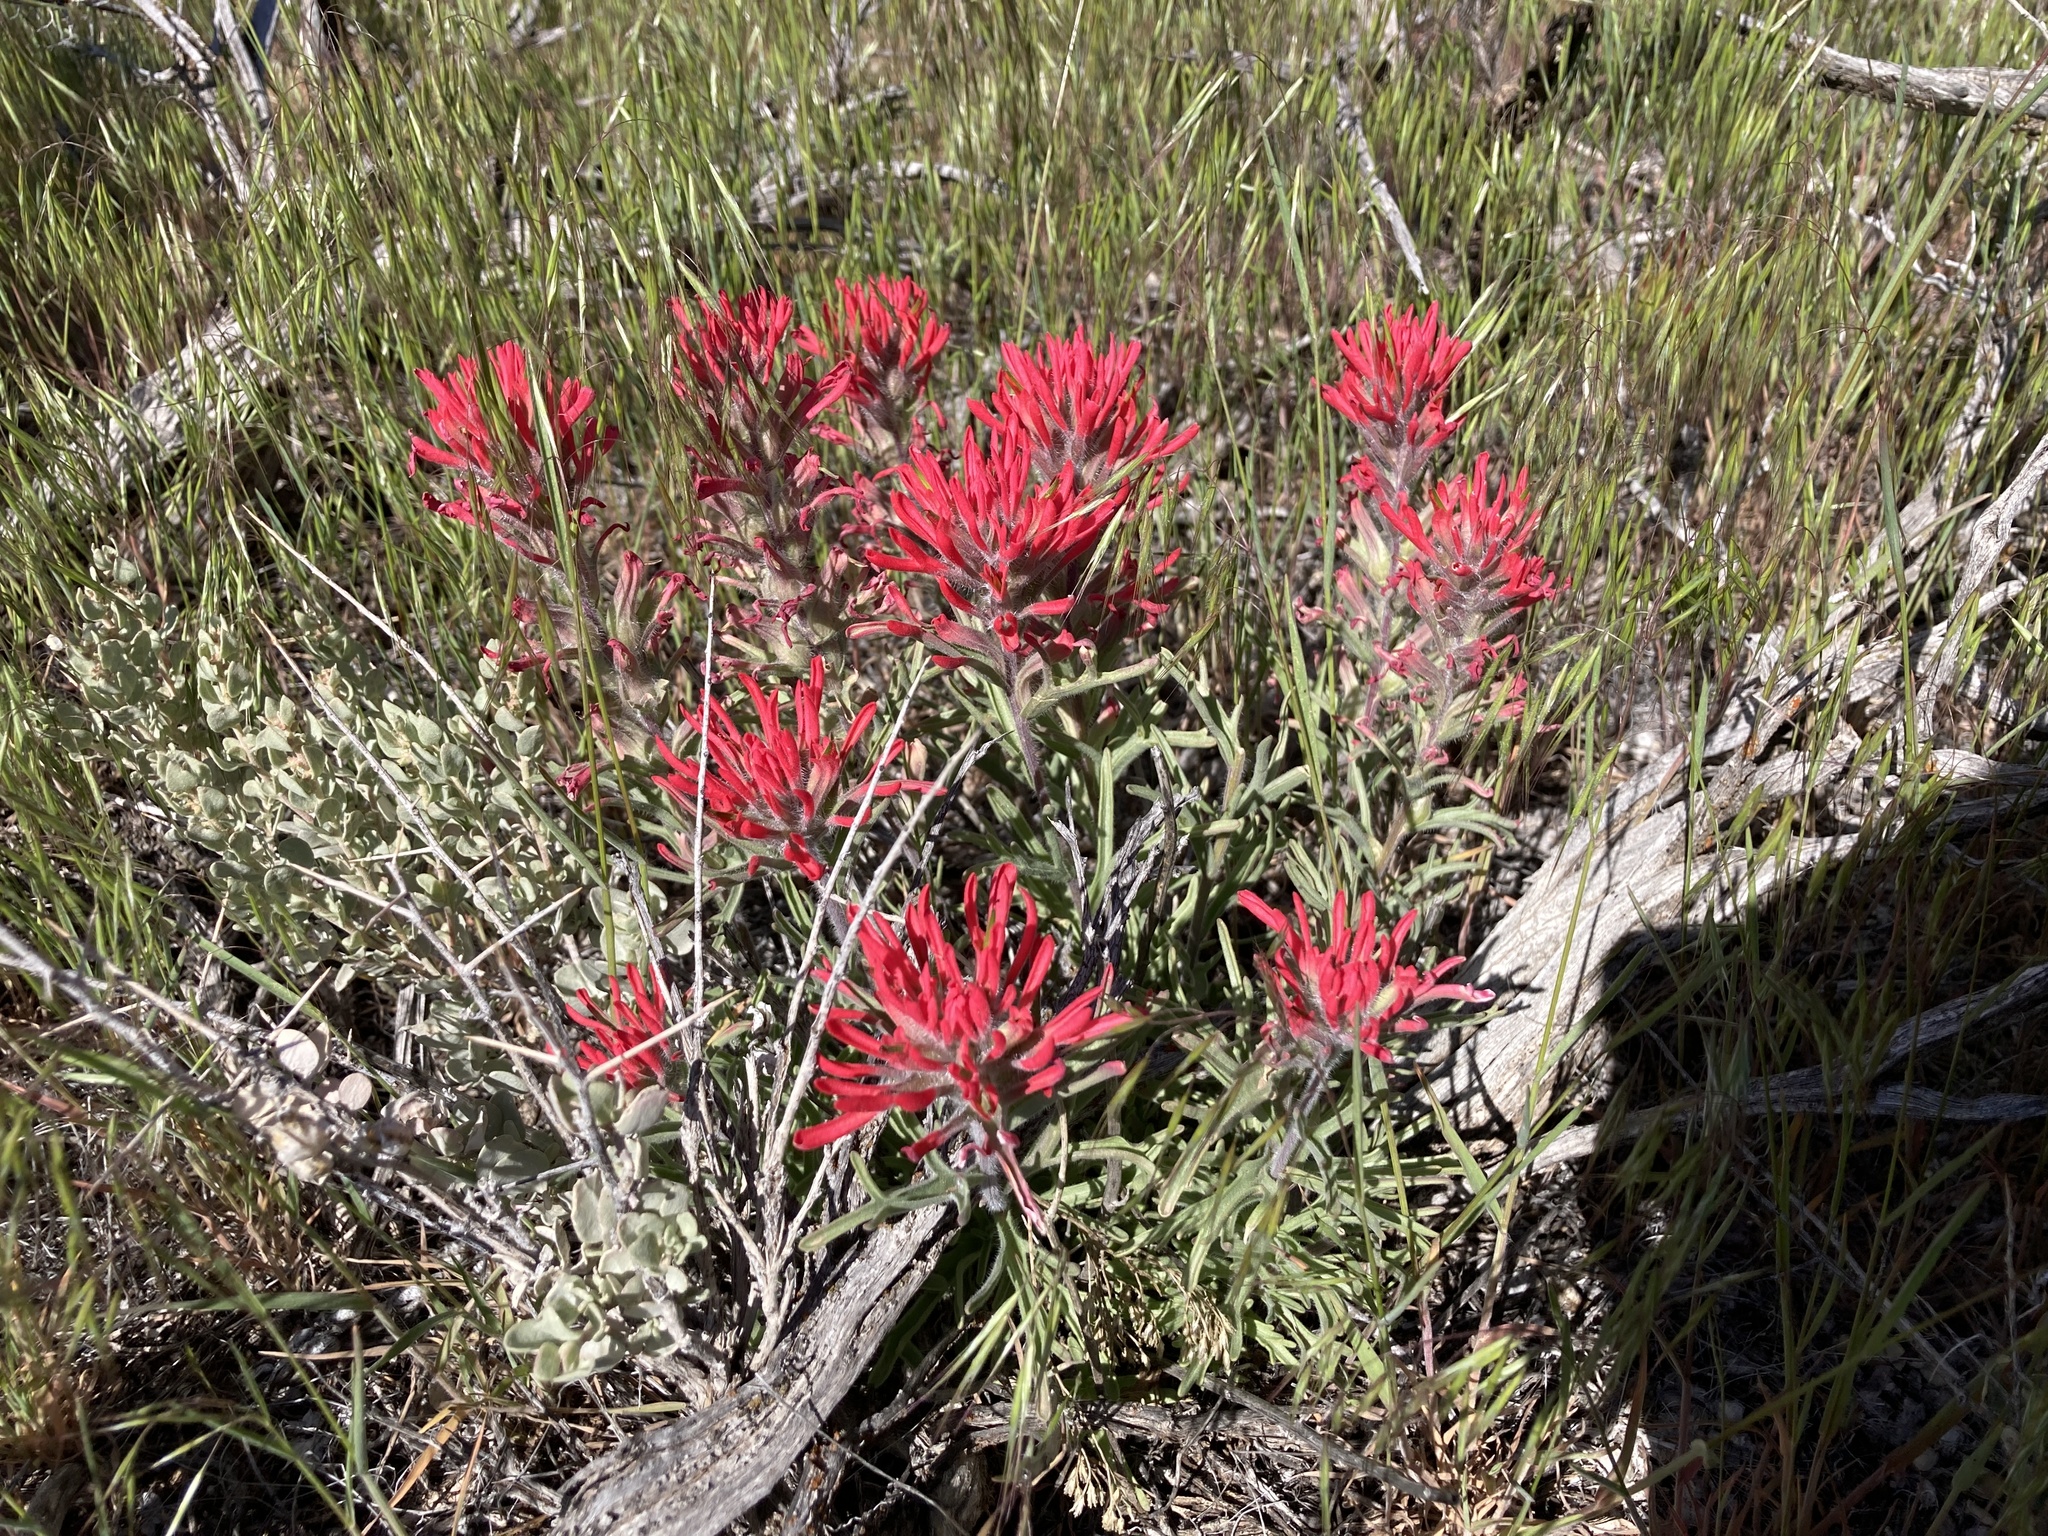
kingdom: Plantae
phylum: Tracheophyta
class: Magnoliopsida
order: Lamiales
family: Orobanchaceae
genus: Castilleja
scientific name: Castilleja scabrida
